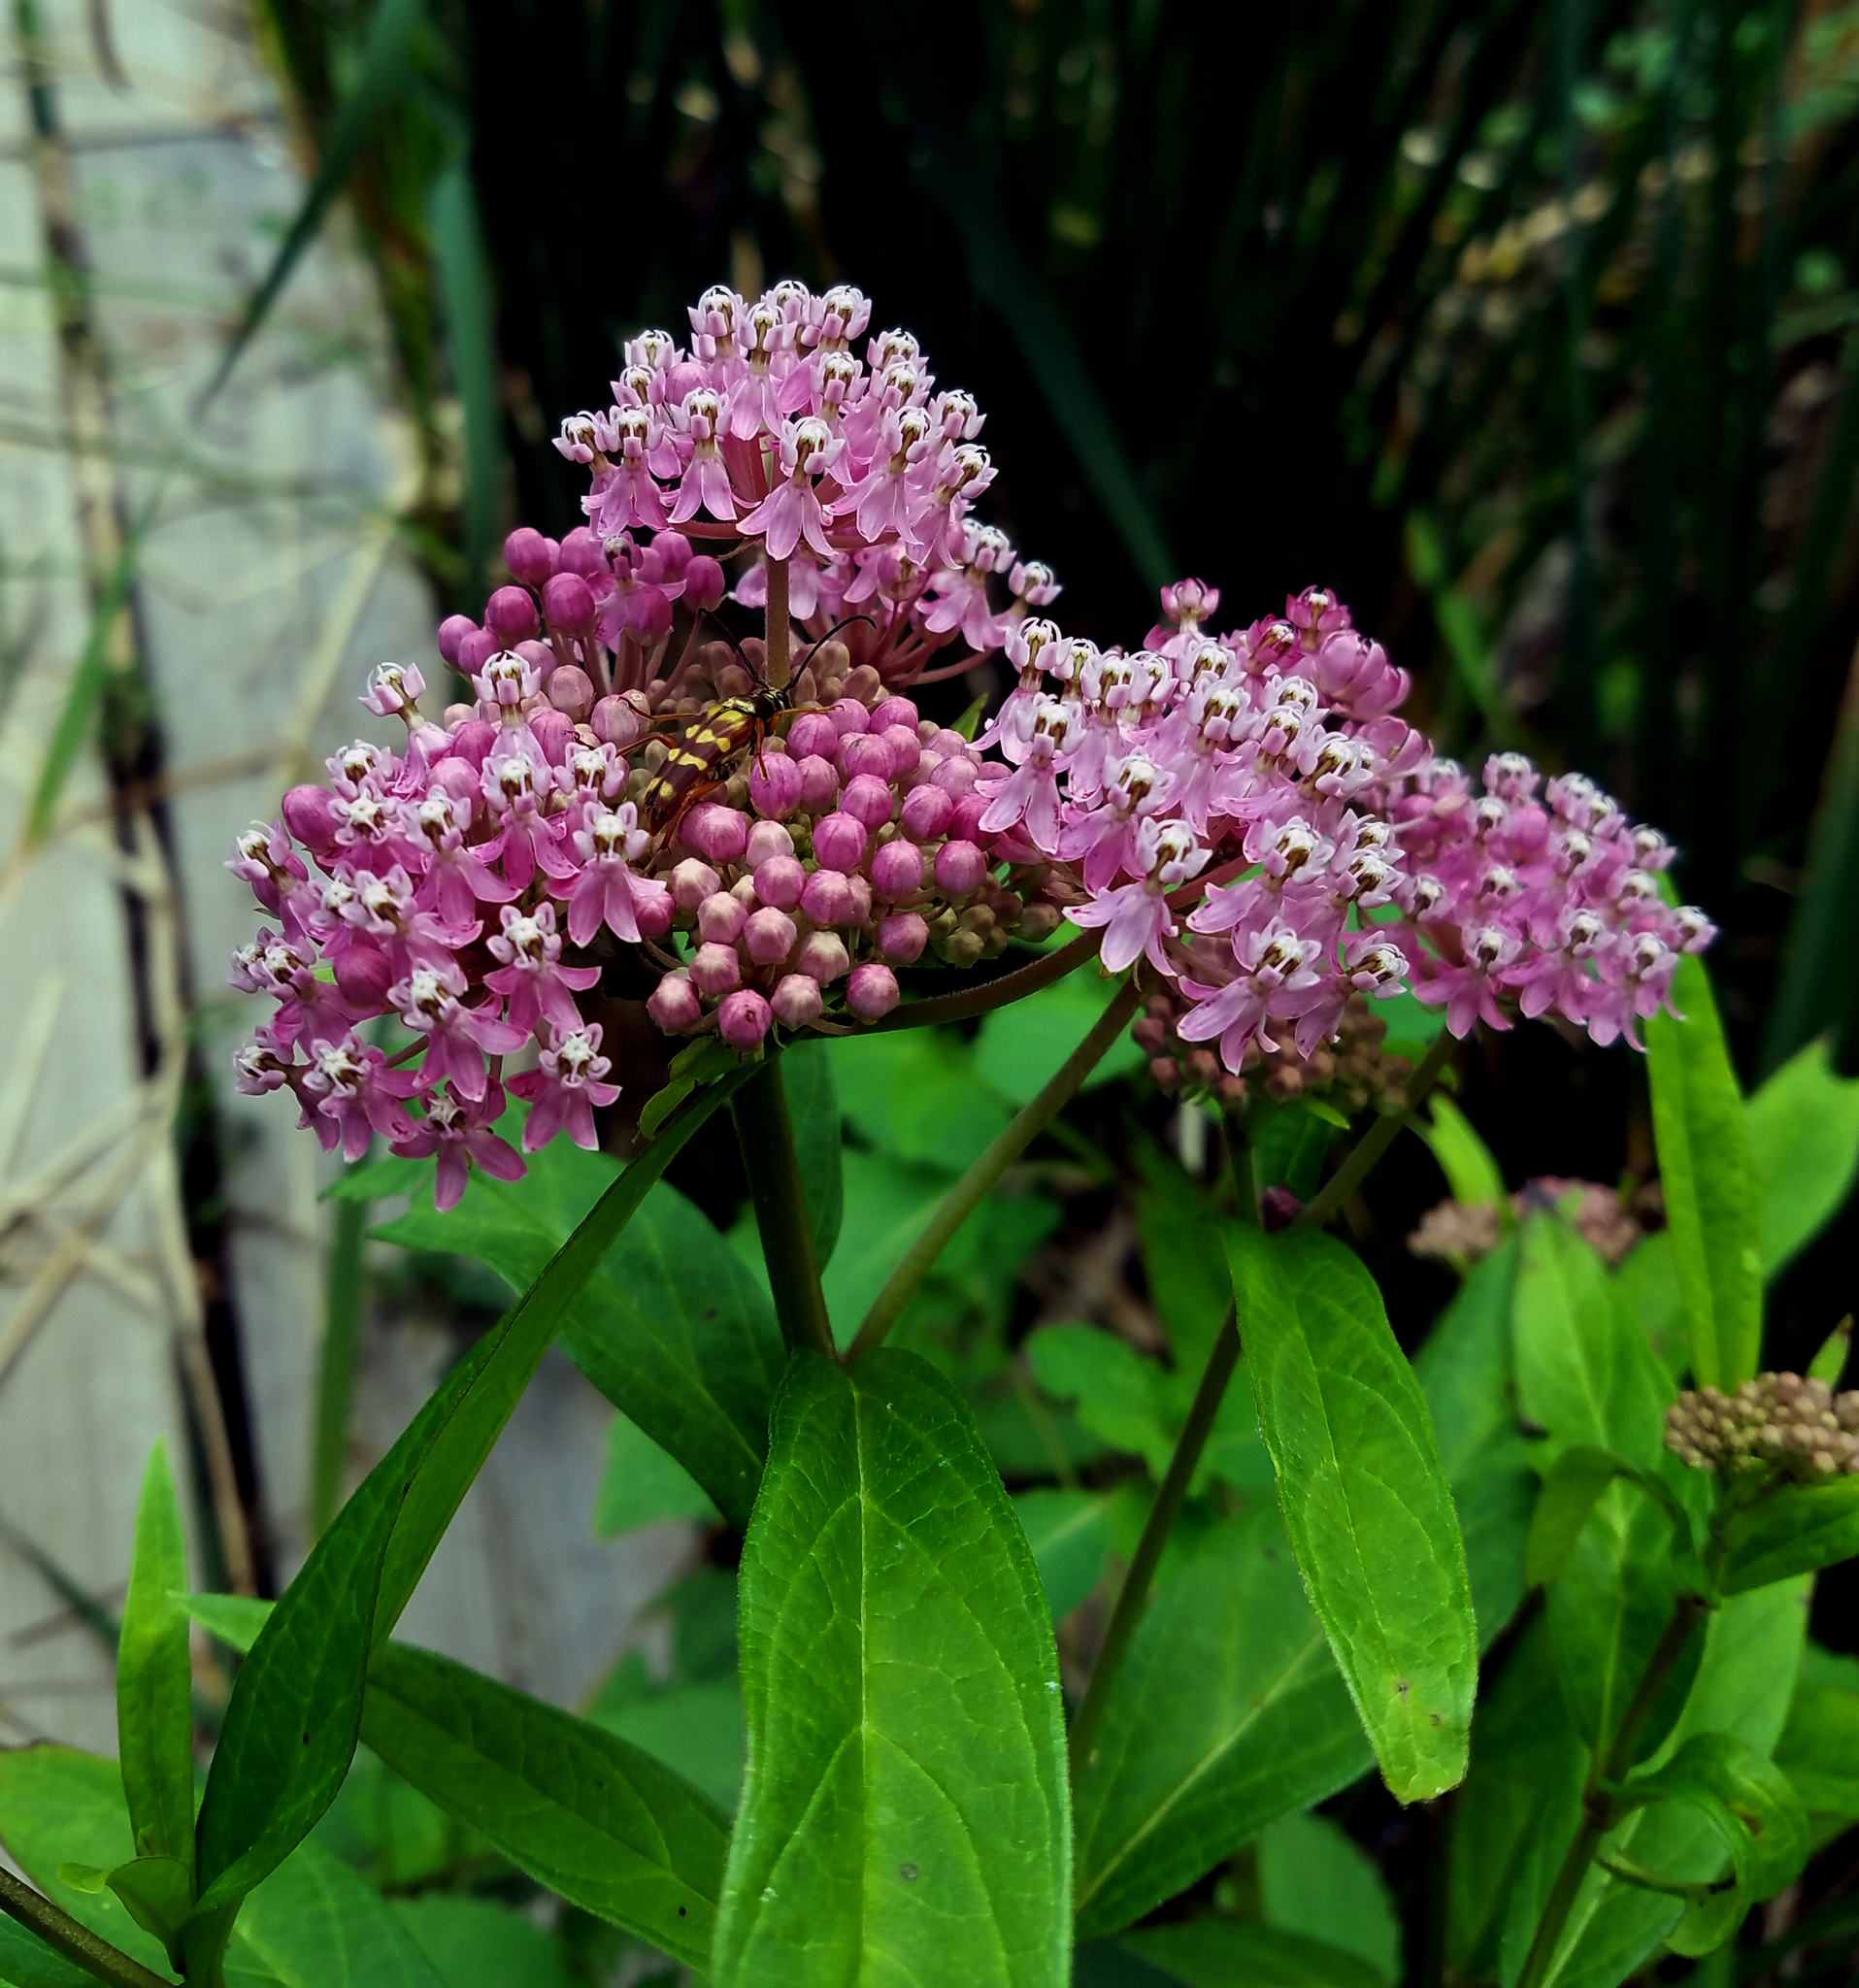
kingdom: Plantae
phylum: Tracheophyta
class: Magnoliopsida
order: Gentianales
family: Apocynaceae
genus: Asclepias
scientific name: Asclepias incarnata
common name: Swamp milkweed
